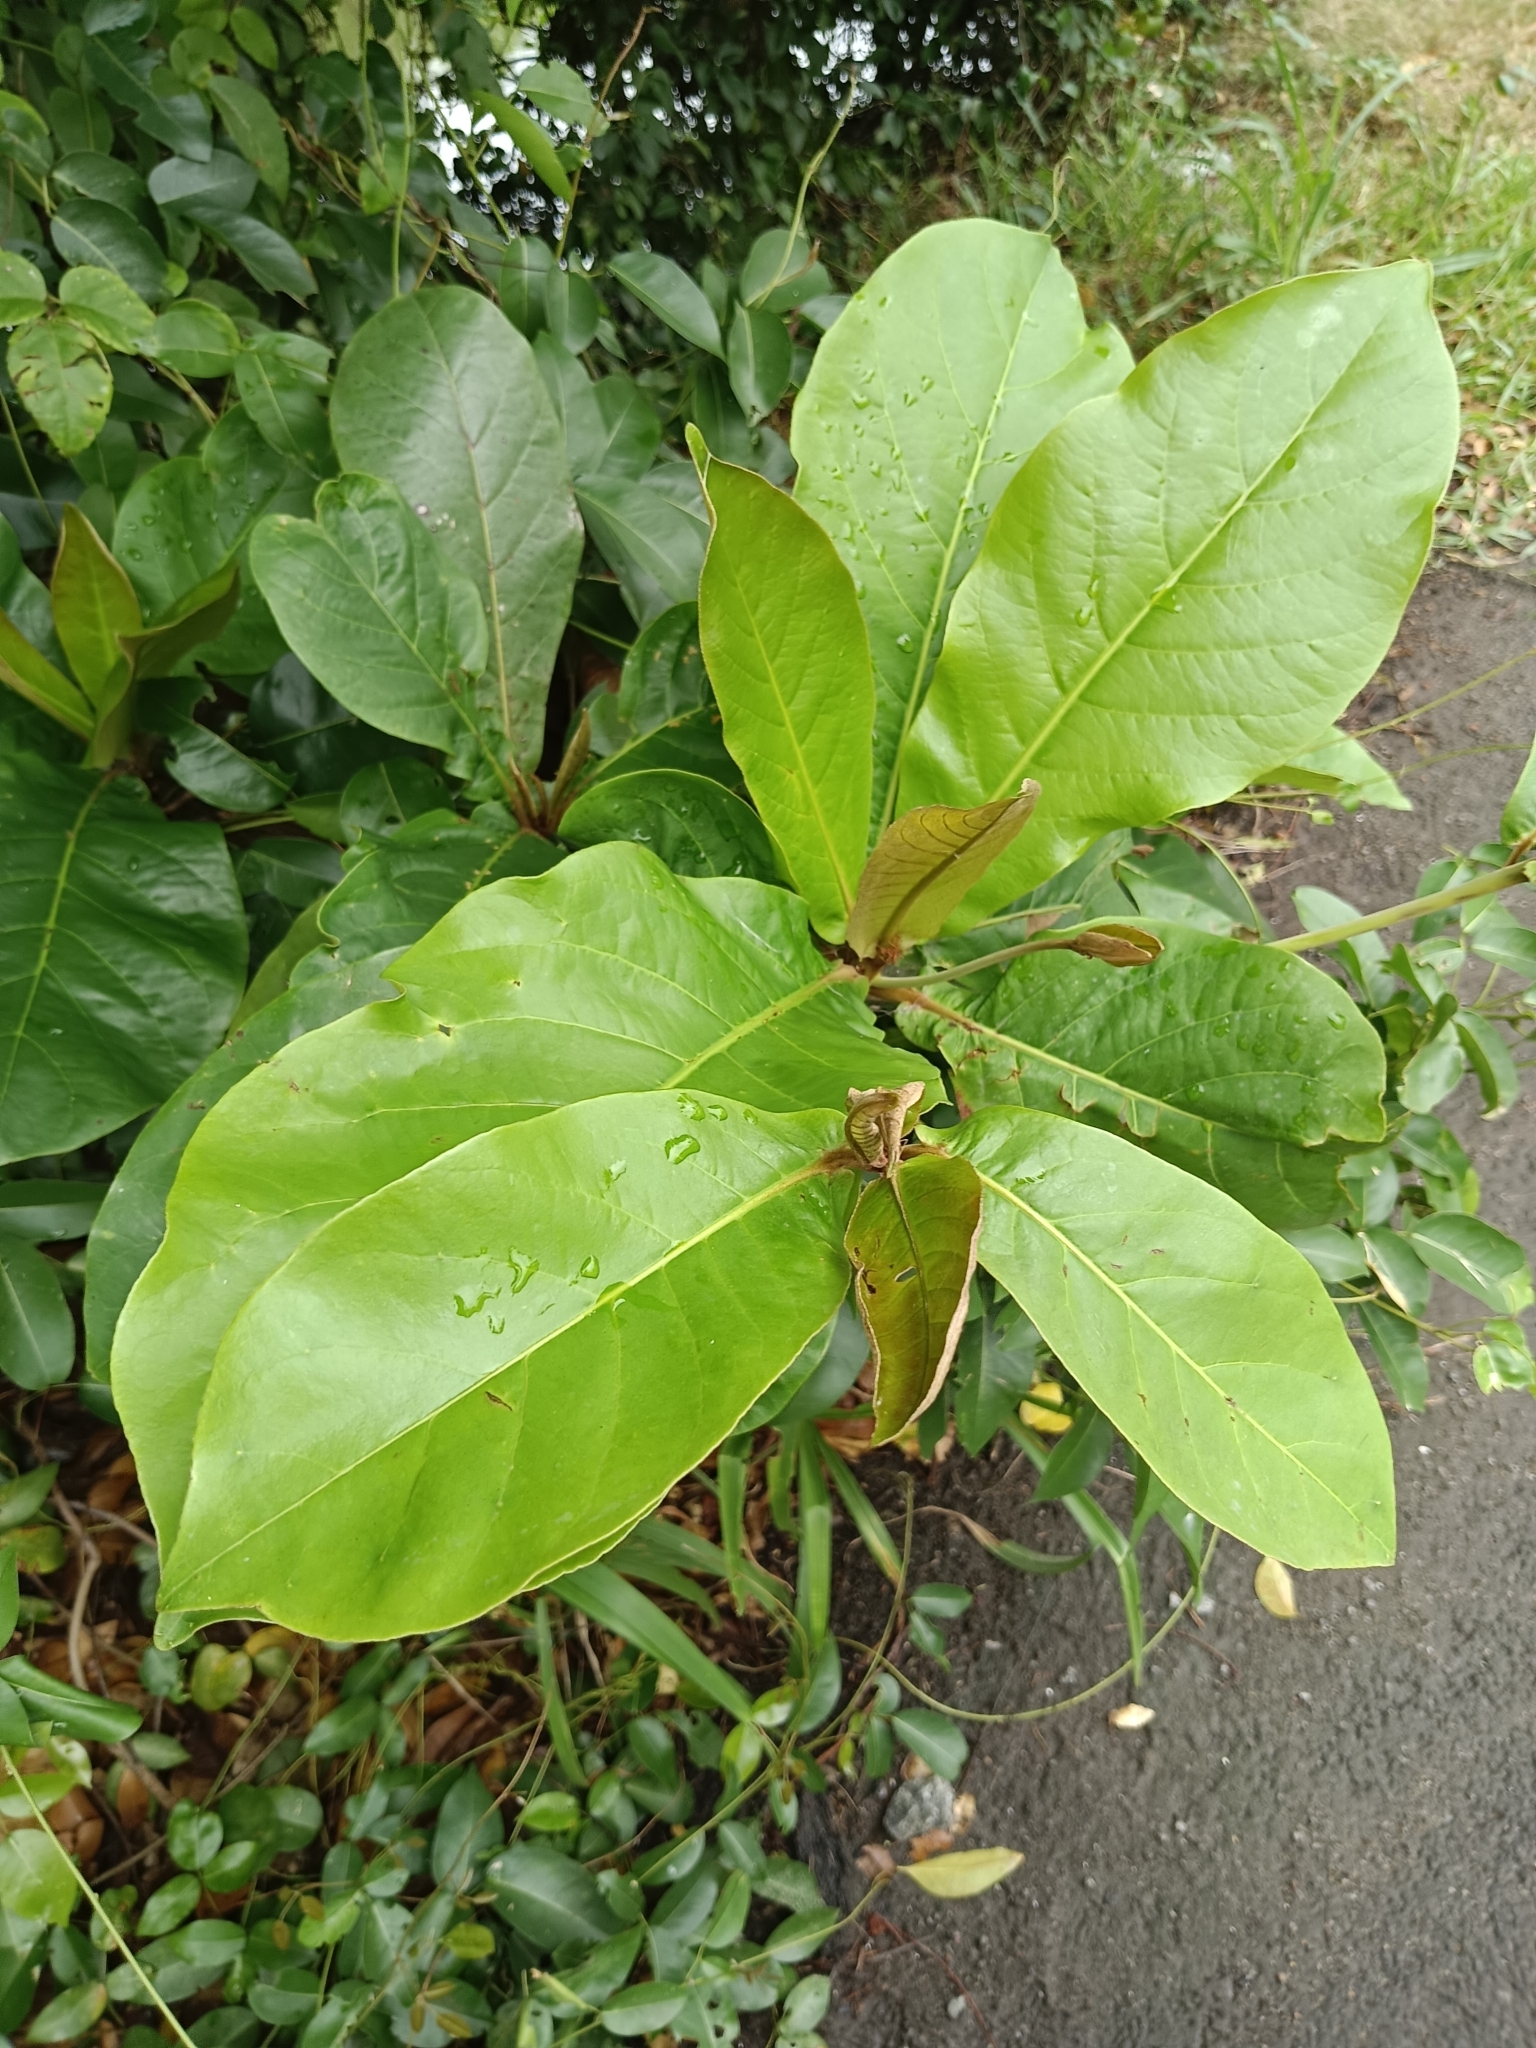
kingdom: Plantae
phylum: Tracheophyta
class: Magnoliopsida
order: Myrtales
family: Combretaceae
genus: Terminalia
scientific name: Terminalia catappa
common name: Tropical almond
